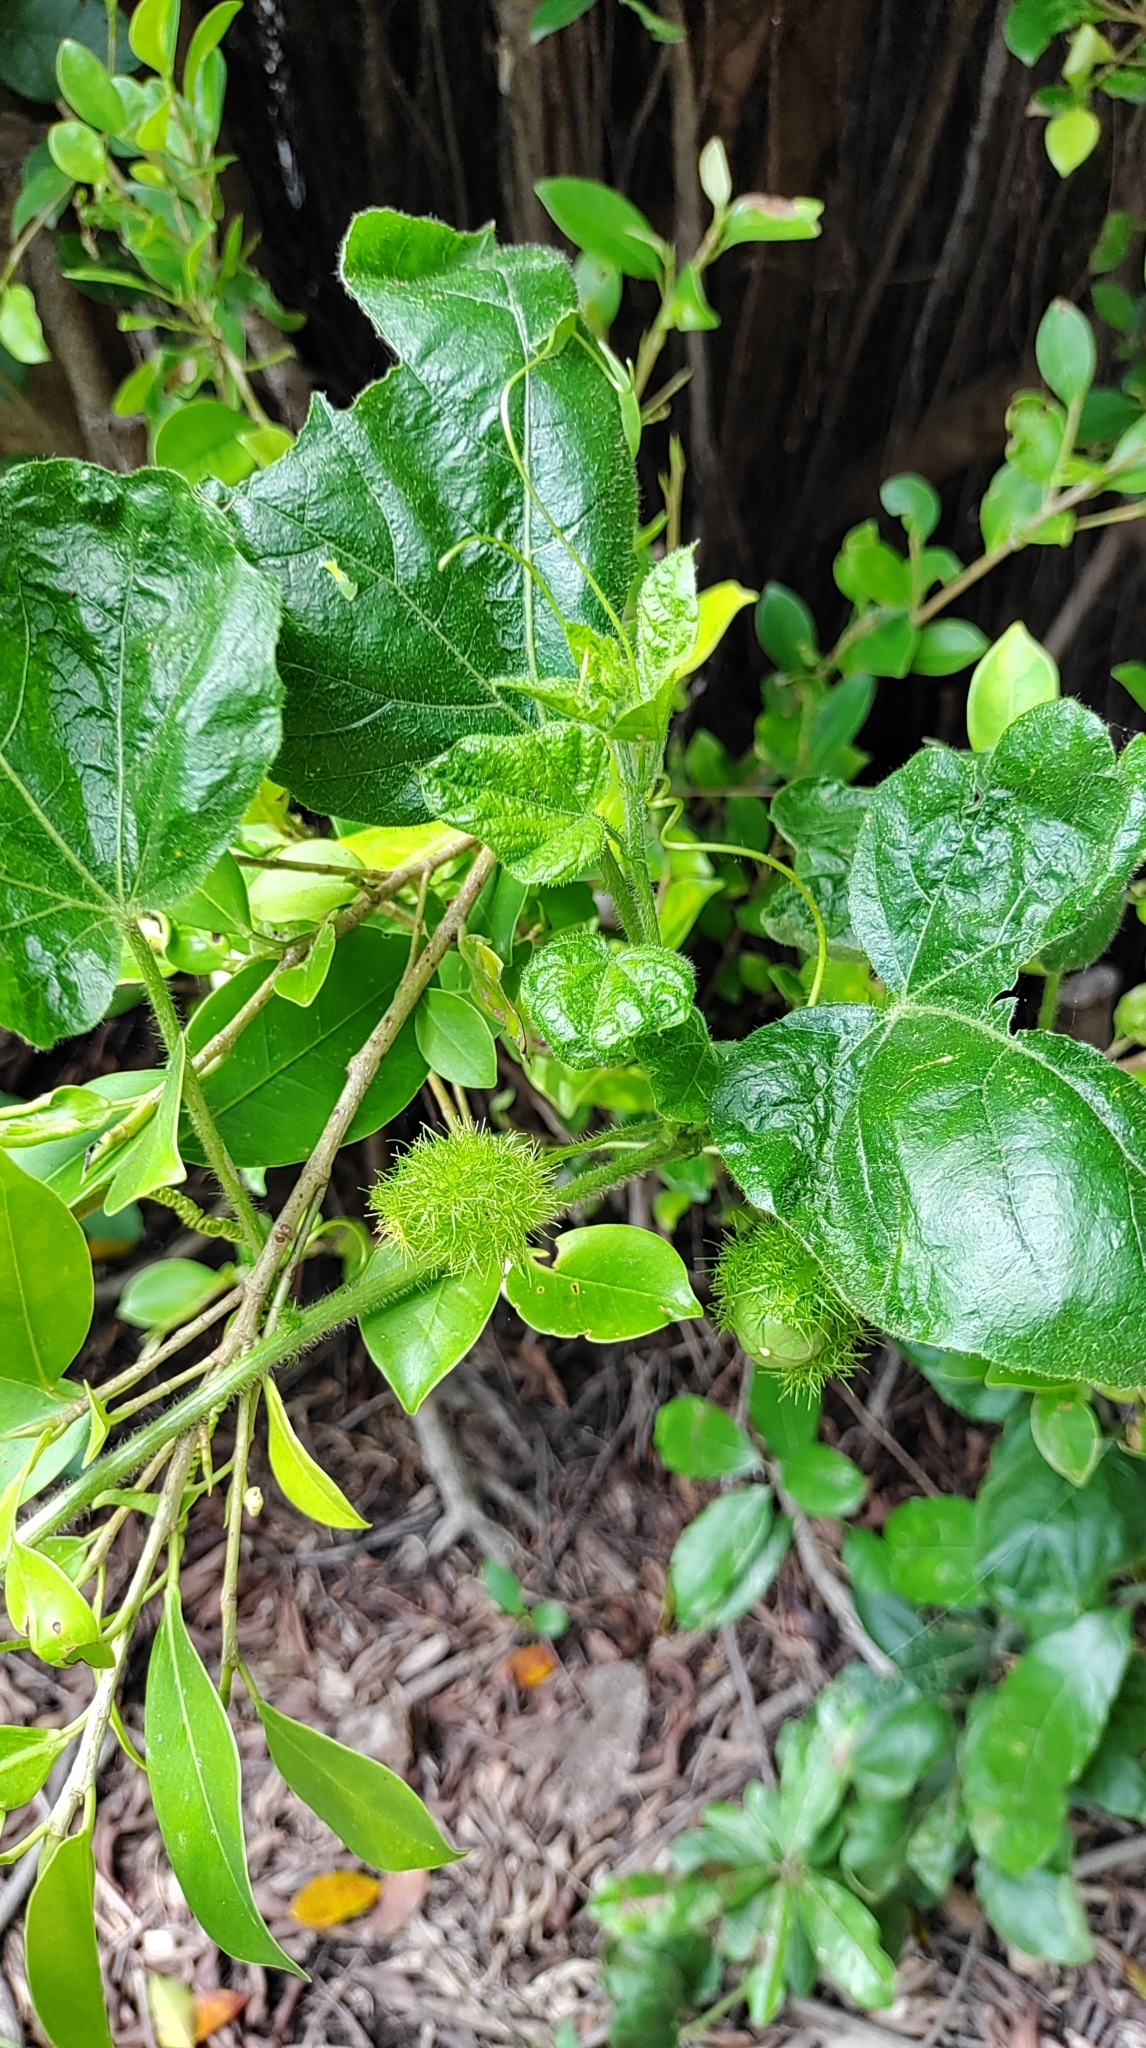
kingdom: Plantae
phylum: Tracheophyta
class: Magnoliopsida
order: Malpighiales
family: Passifloraceae
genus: Passiflora
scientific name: Passiflora vesicaria
